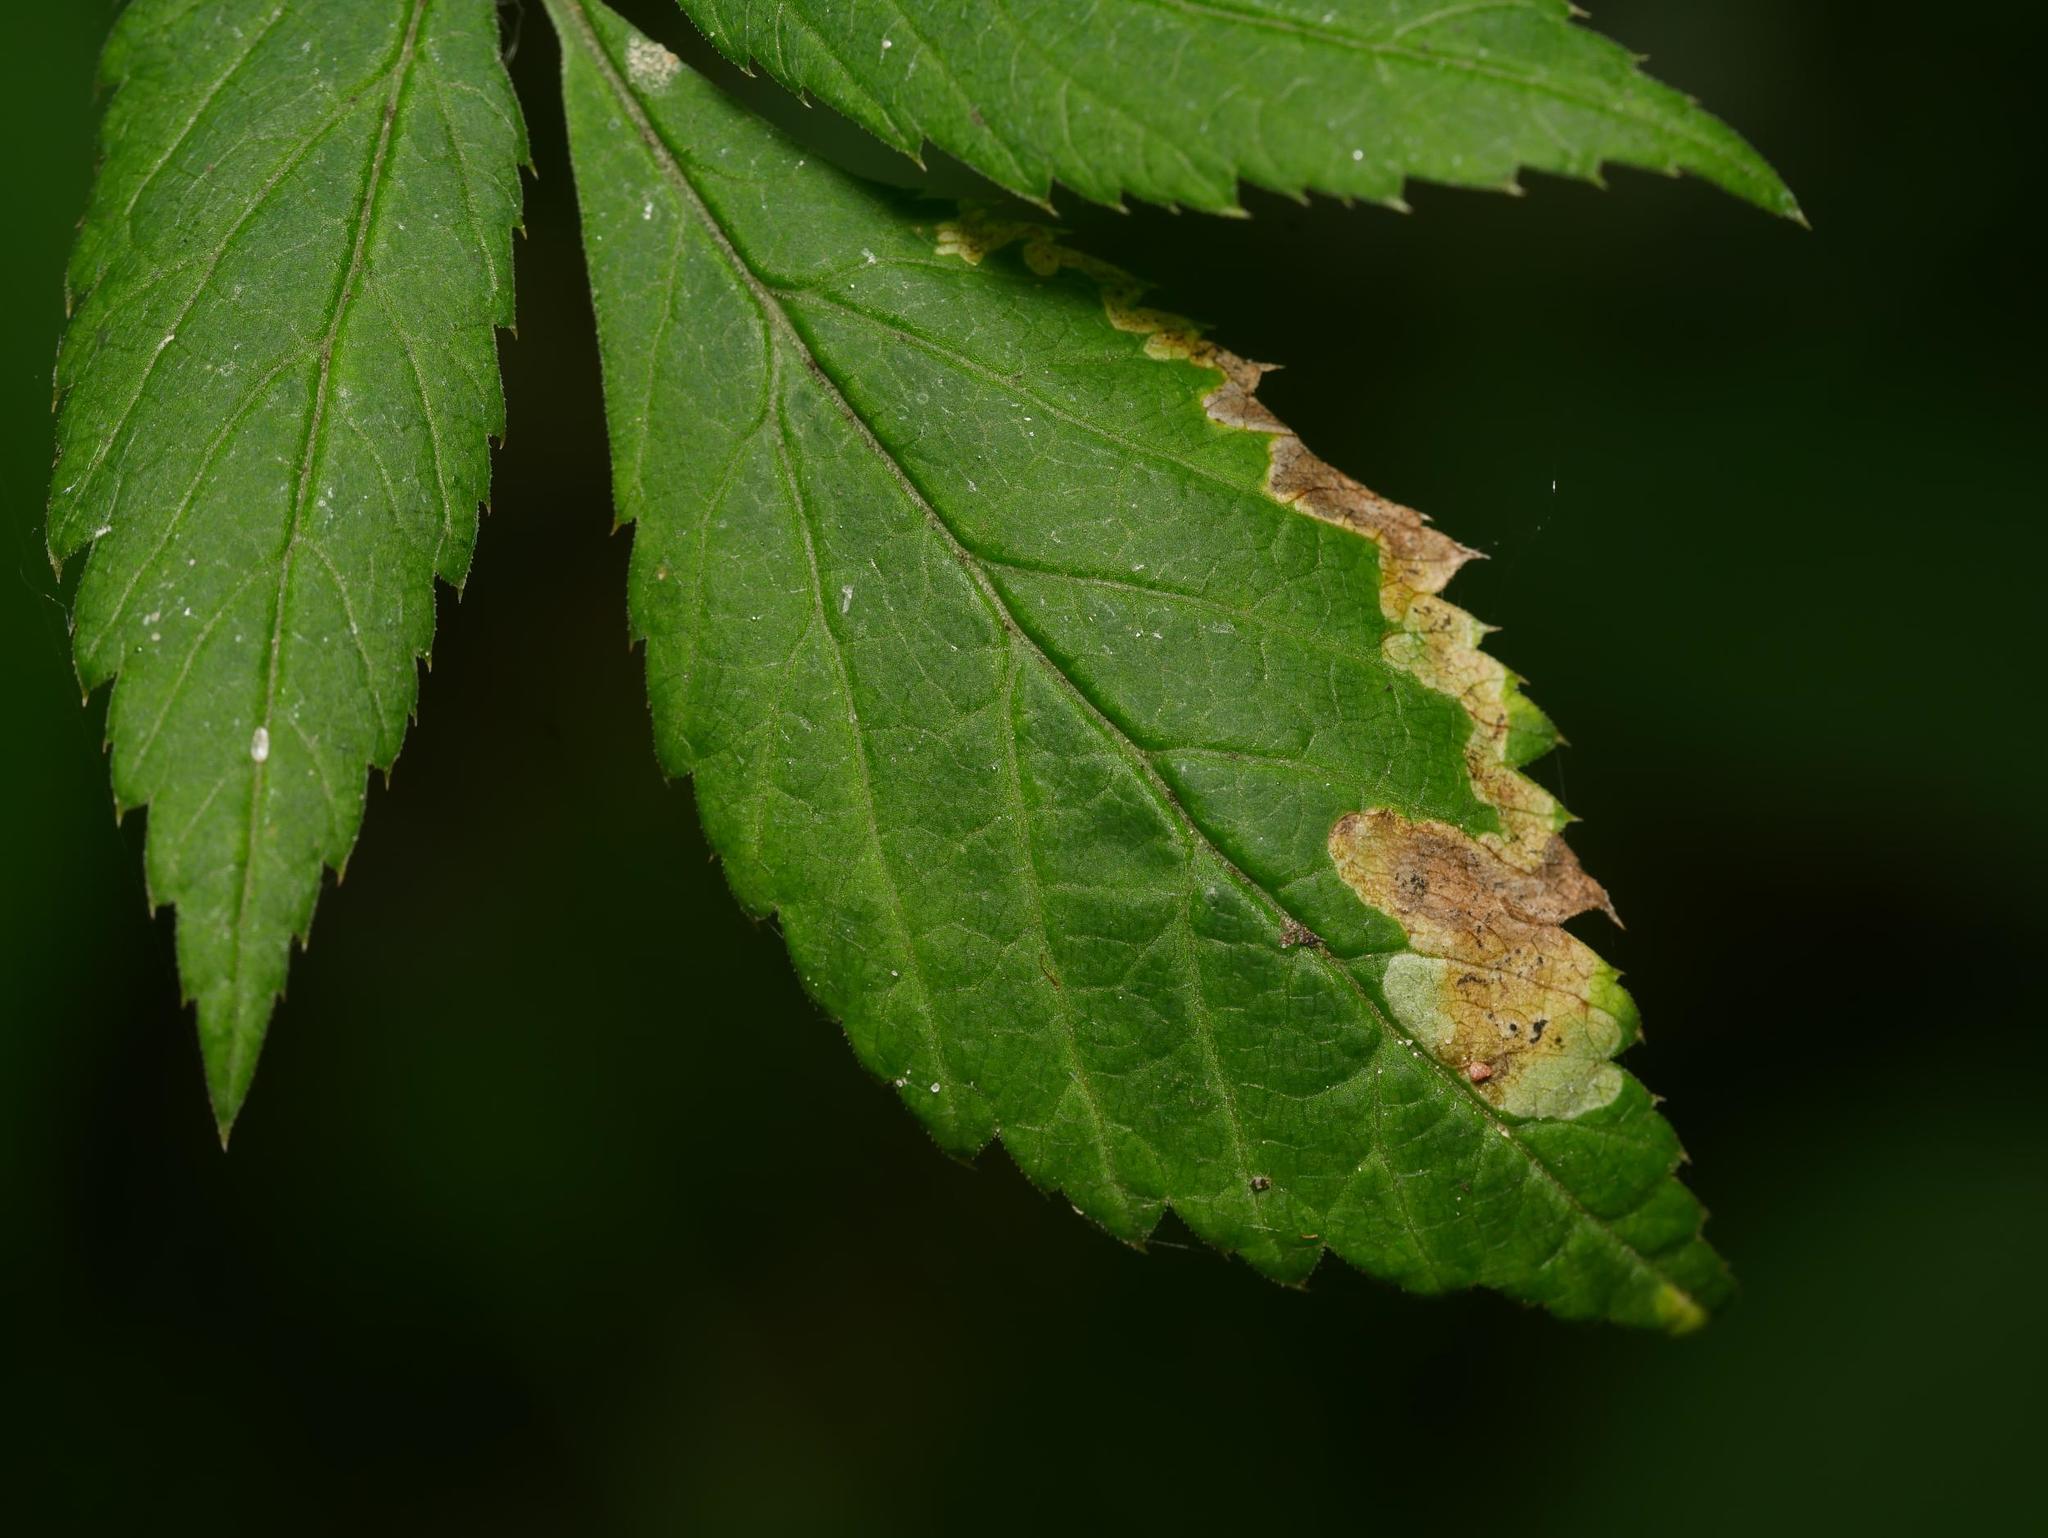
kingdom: Animalia
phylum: Arthropoda
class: Insecta
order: Diptera
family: Agromyzidae
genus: Phytomyza
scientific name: Phytomyza obscurella
